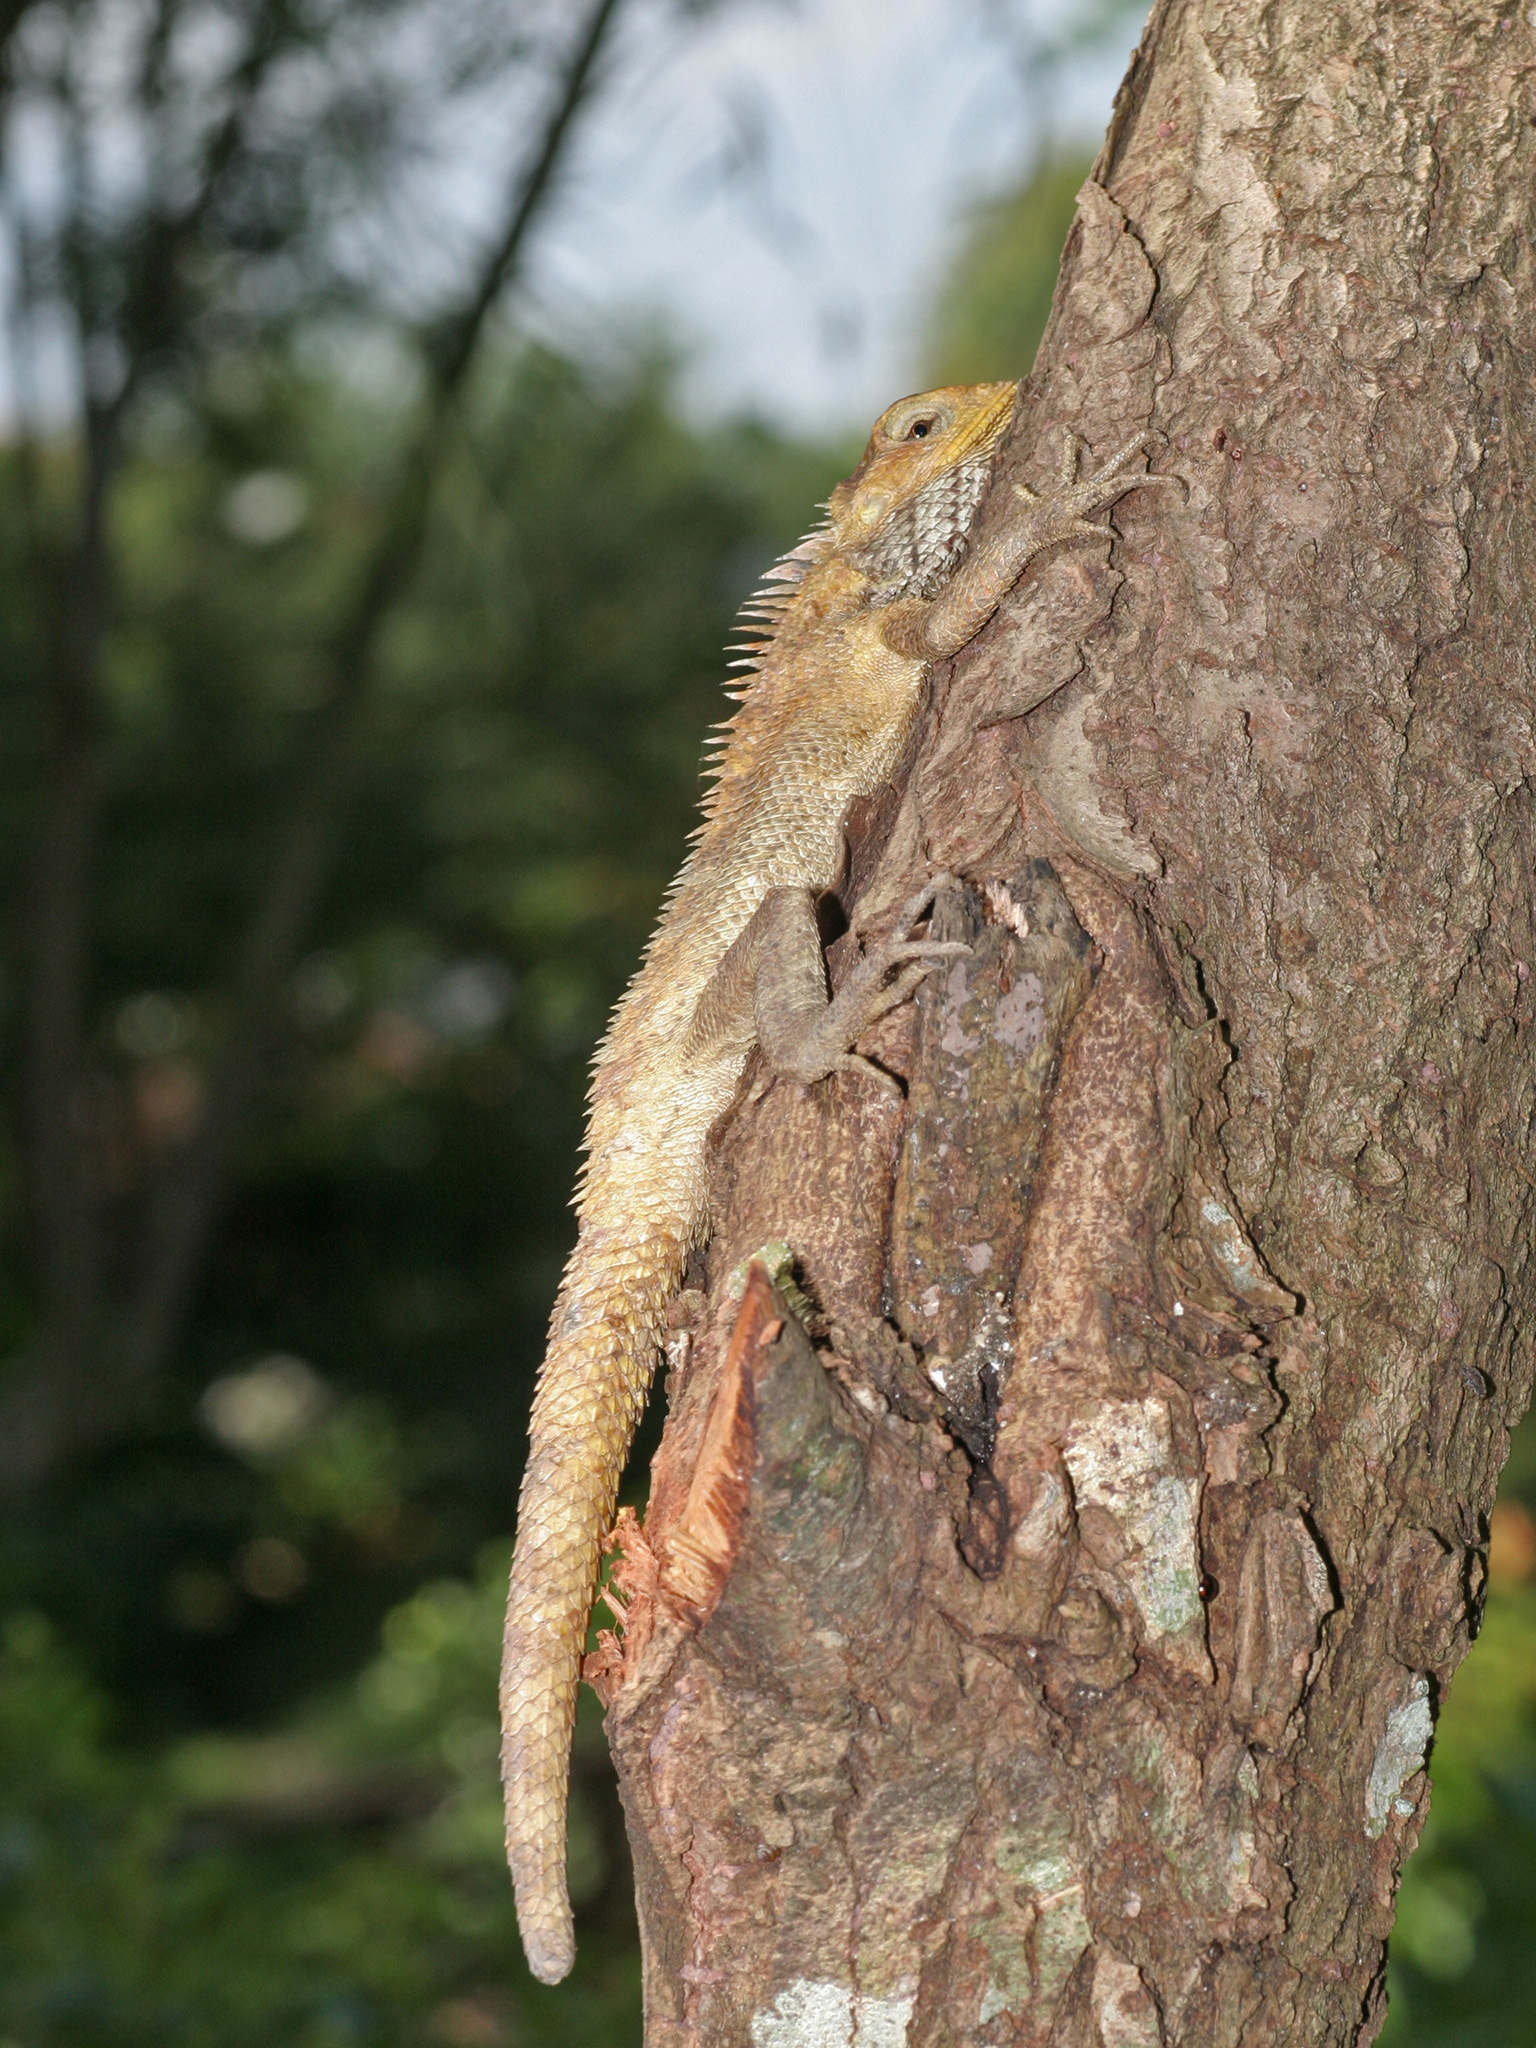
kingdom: Animalia
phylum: Chordata
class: Squamata
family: Agamidae
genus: Calotes
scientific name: Calotes versicolor
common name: Oriental garden lizard
